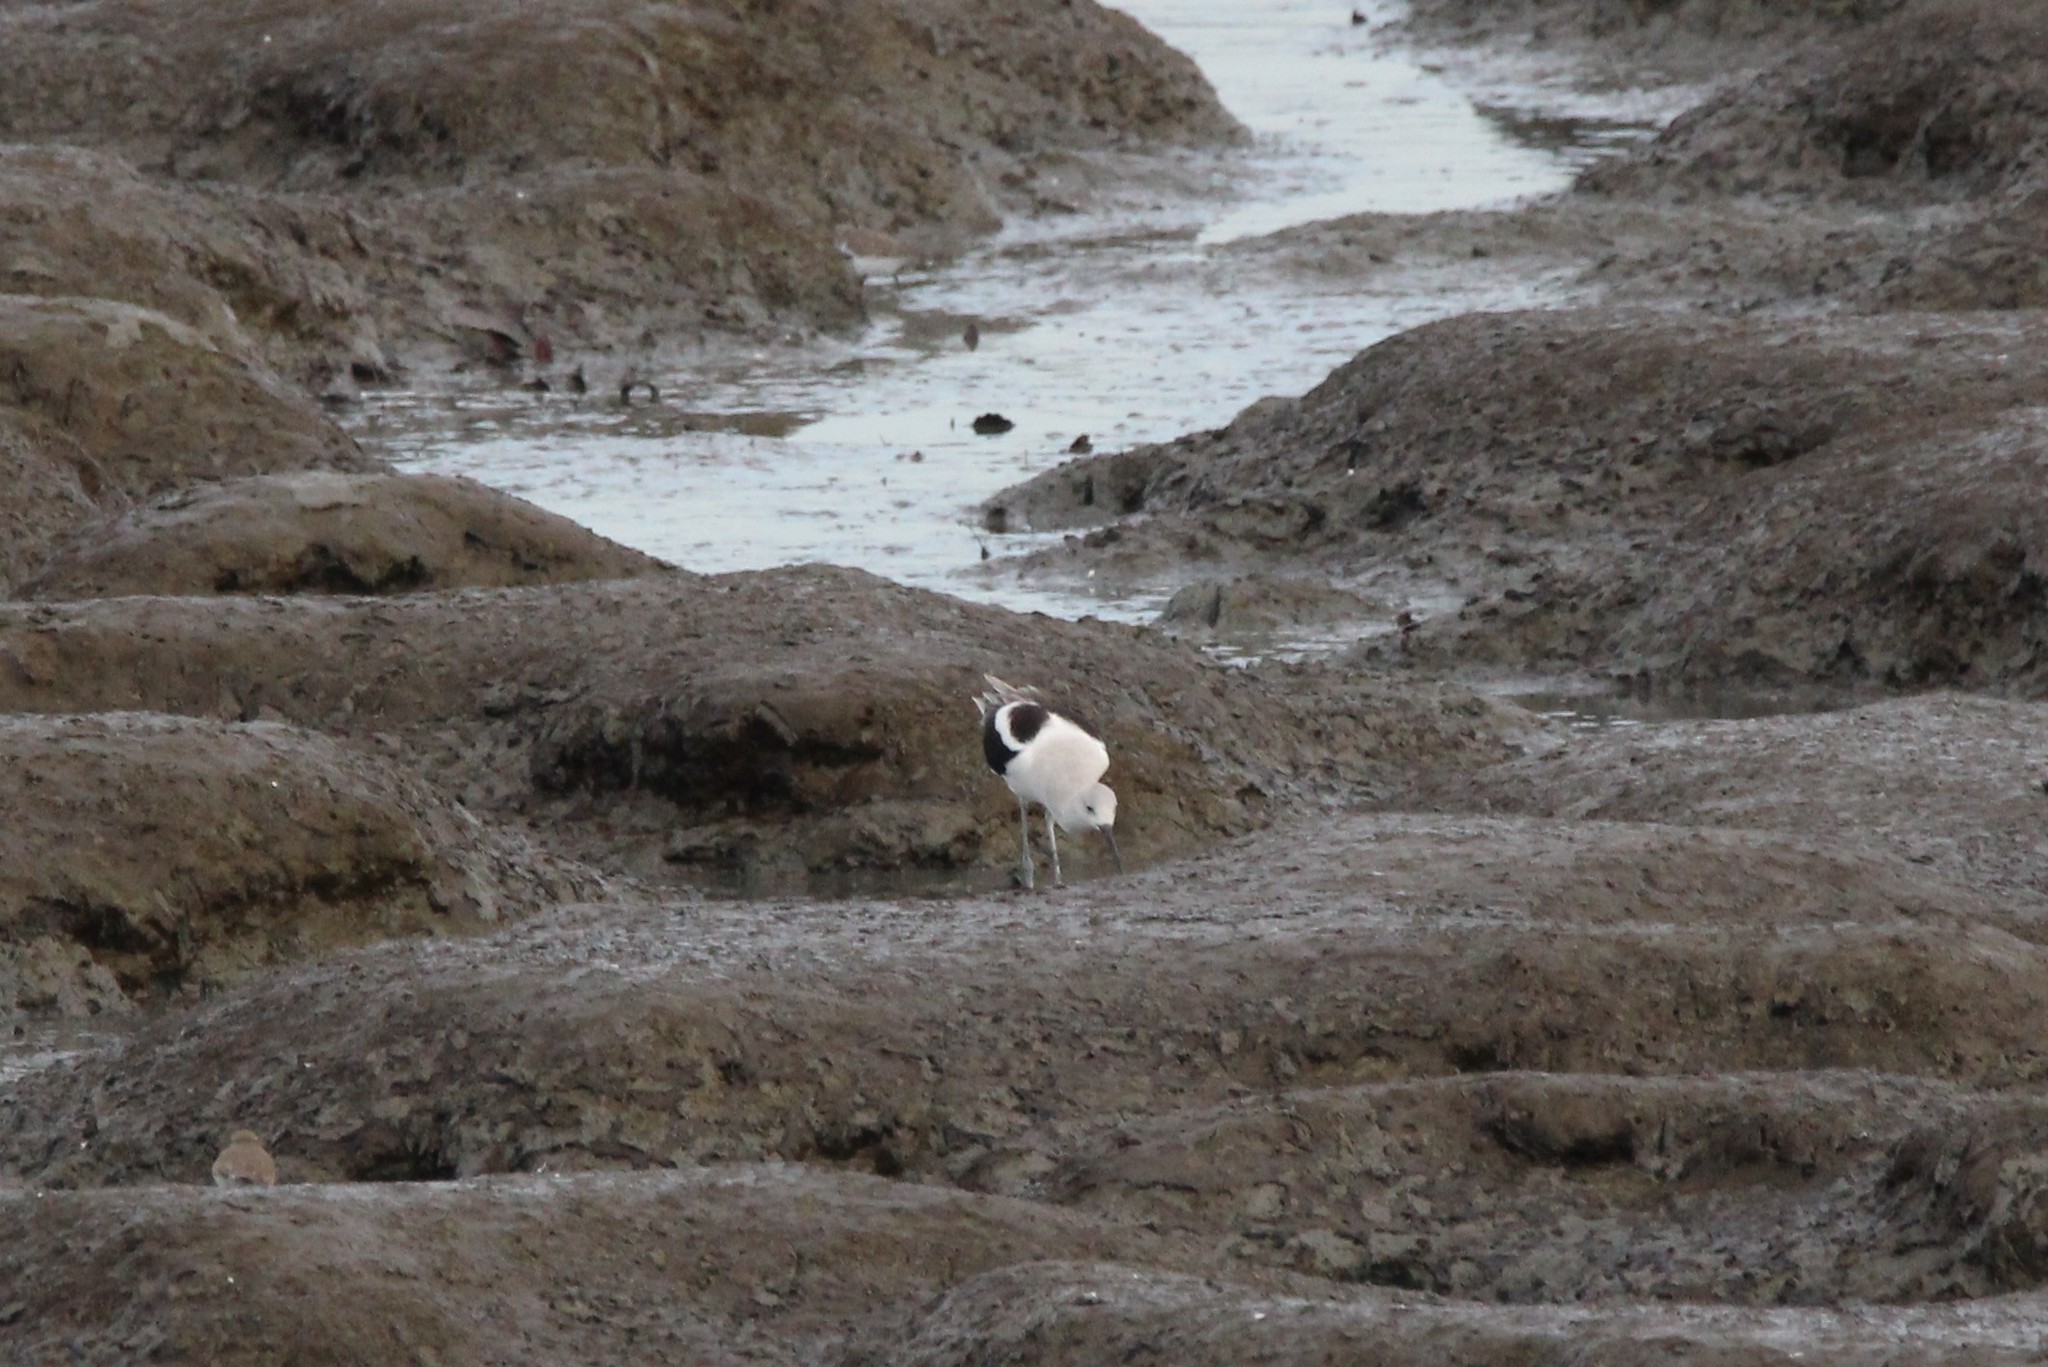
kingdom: Animalia
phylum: Chordata
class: Aves
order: Charadriiformes
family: Recurvirostridae
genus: Recurvirostra
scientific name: Recurvirostra americana
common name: American avocet
